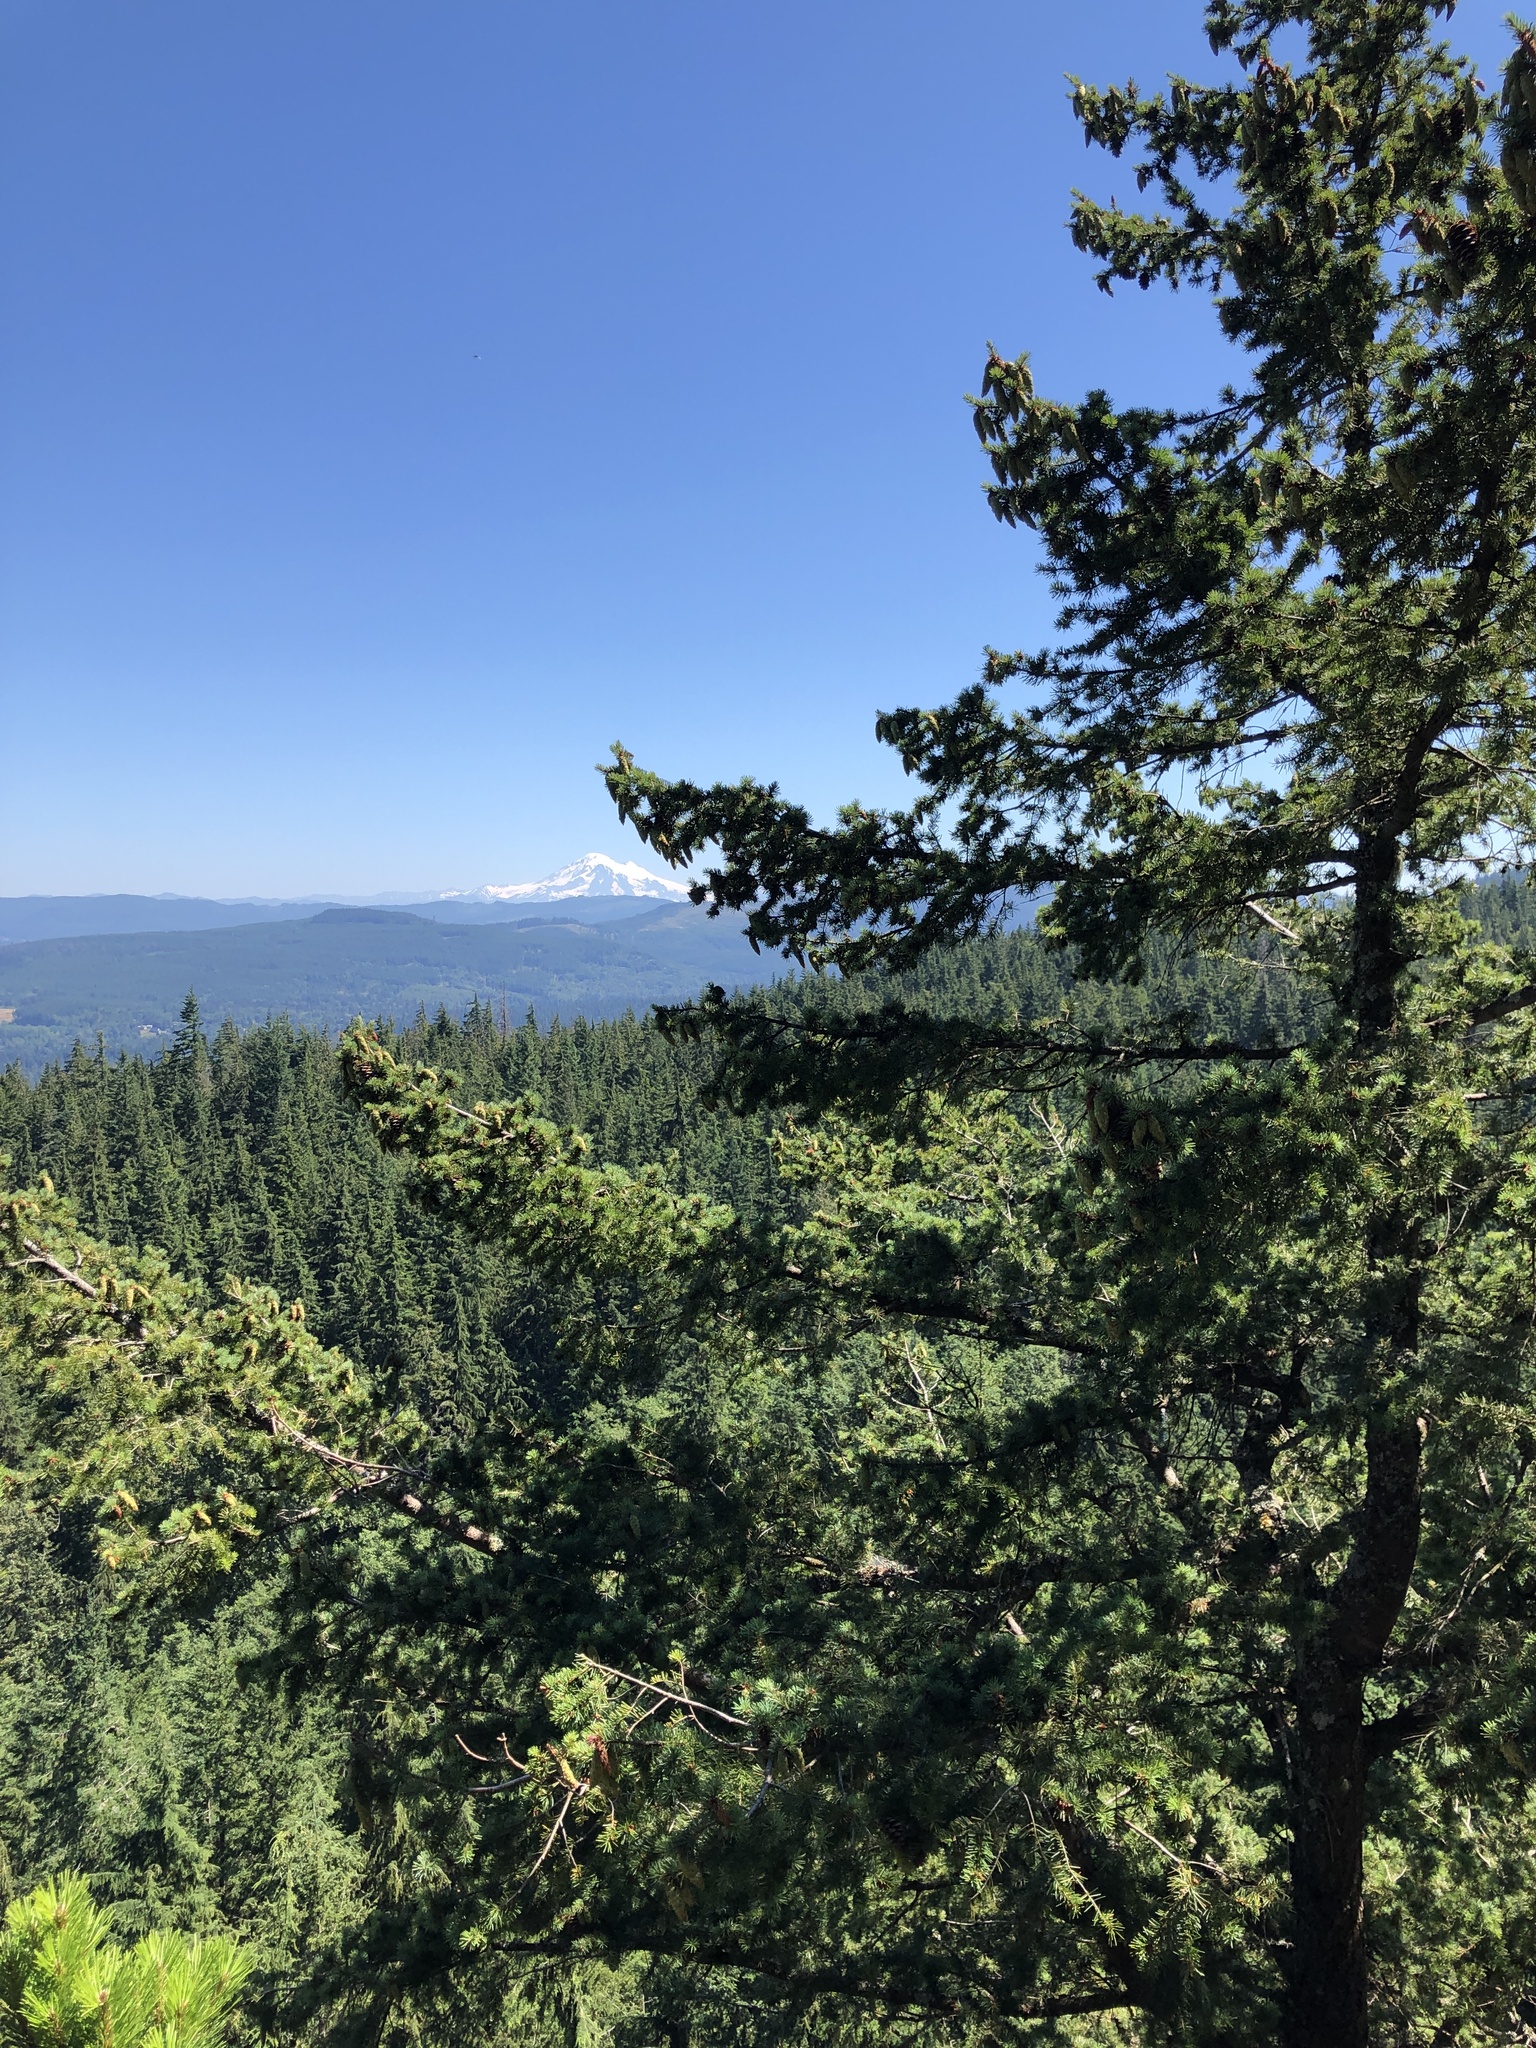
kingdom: Plantae
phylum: Tracheophyta
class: Pinopsida
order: Pinales
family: Pinaceae
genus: Pseudotsuga
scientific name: Pseudotsuga menziesii
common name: Douglas fir
